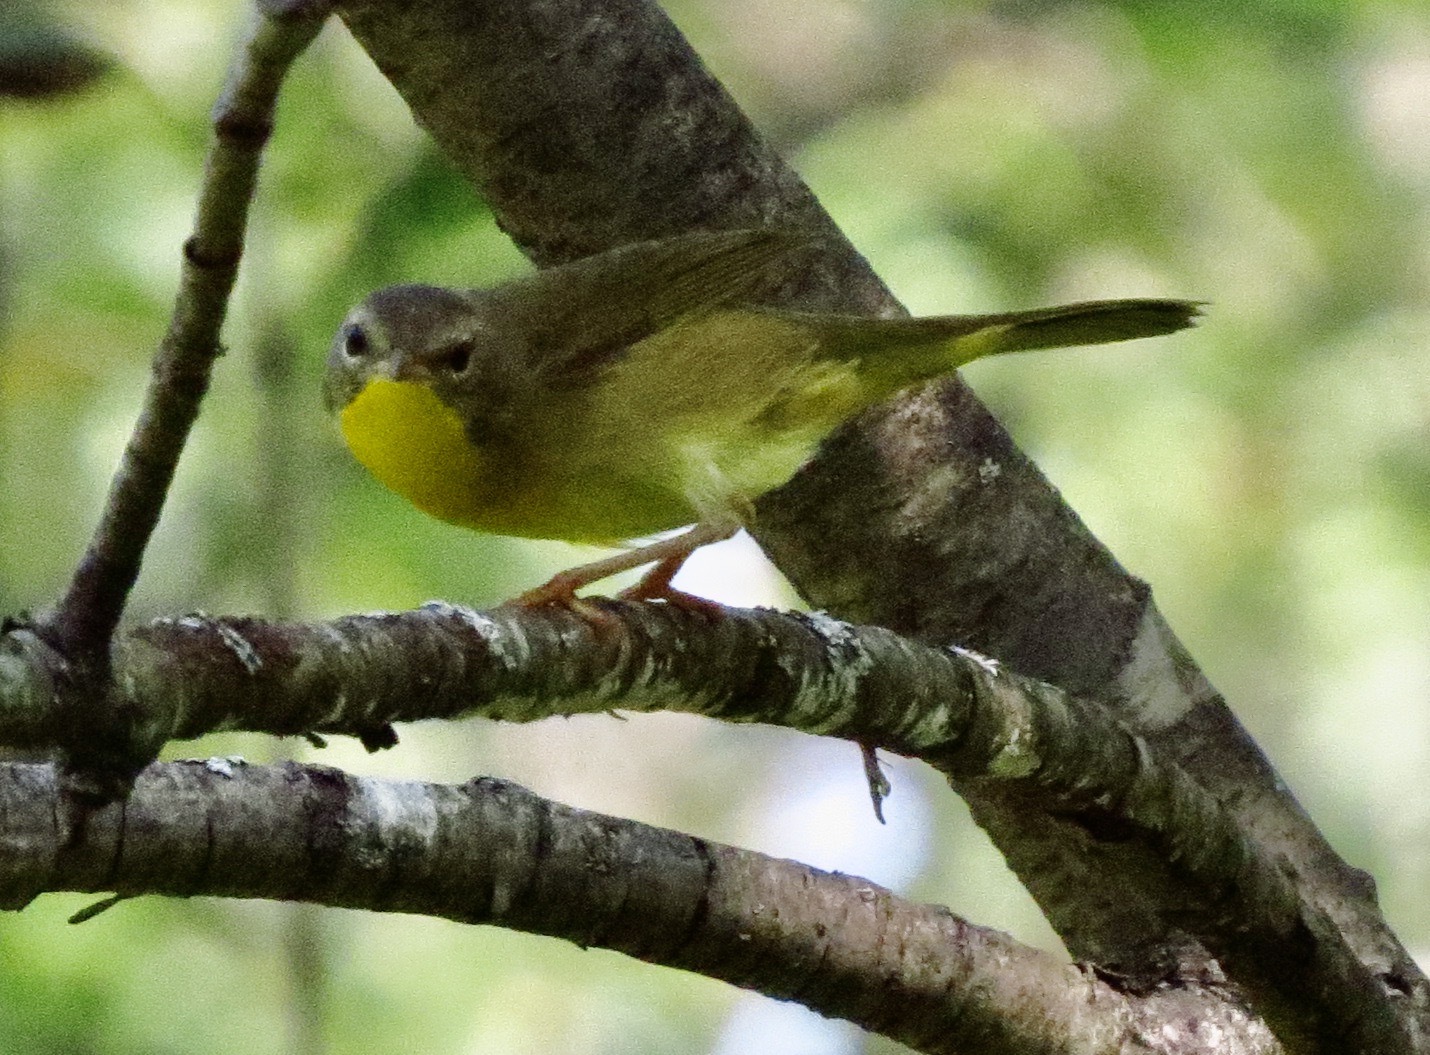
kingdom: Animalia
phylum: Chordata
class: Aves
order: Passeriformes
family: Parulidae
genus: Geothlypis
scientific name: Geothlypis trichas
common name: Common yellowthroat
